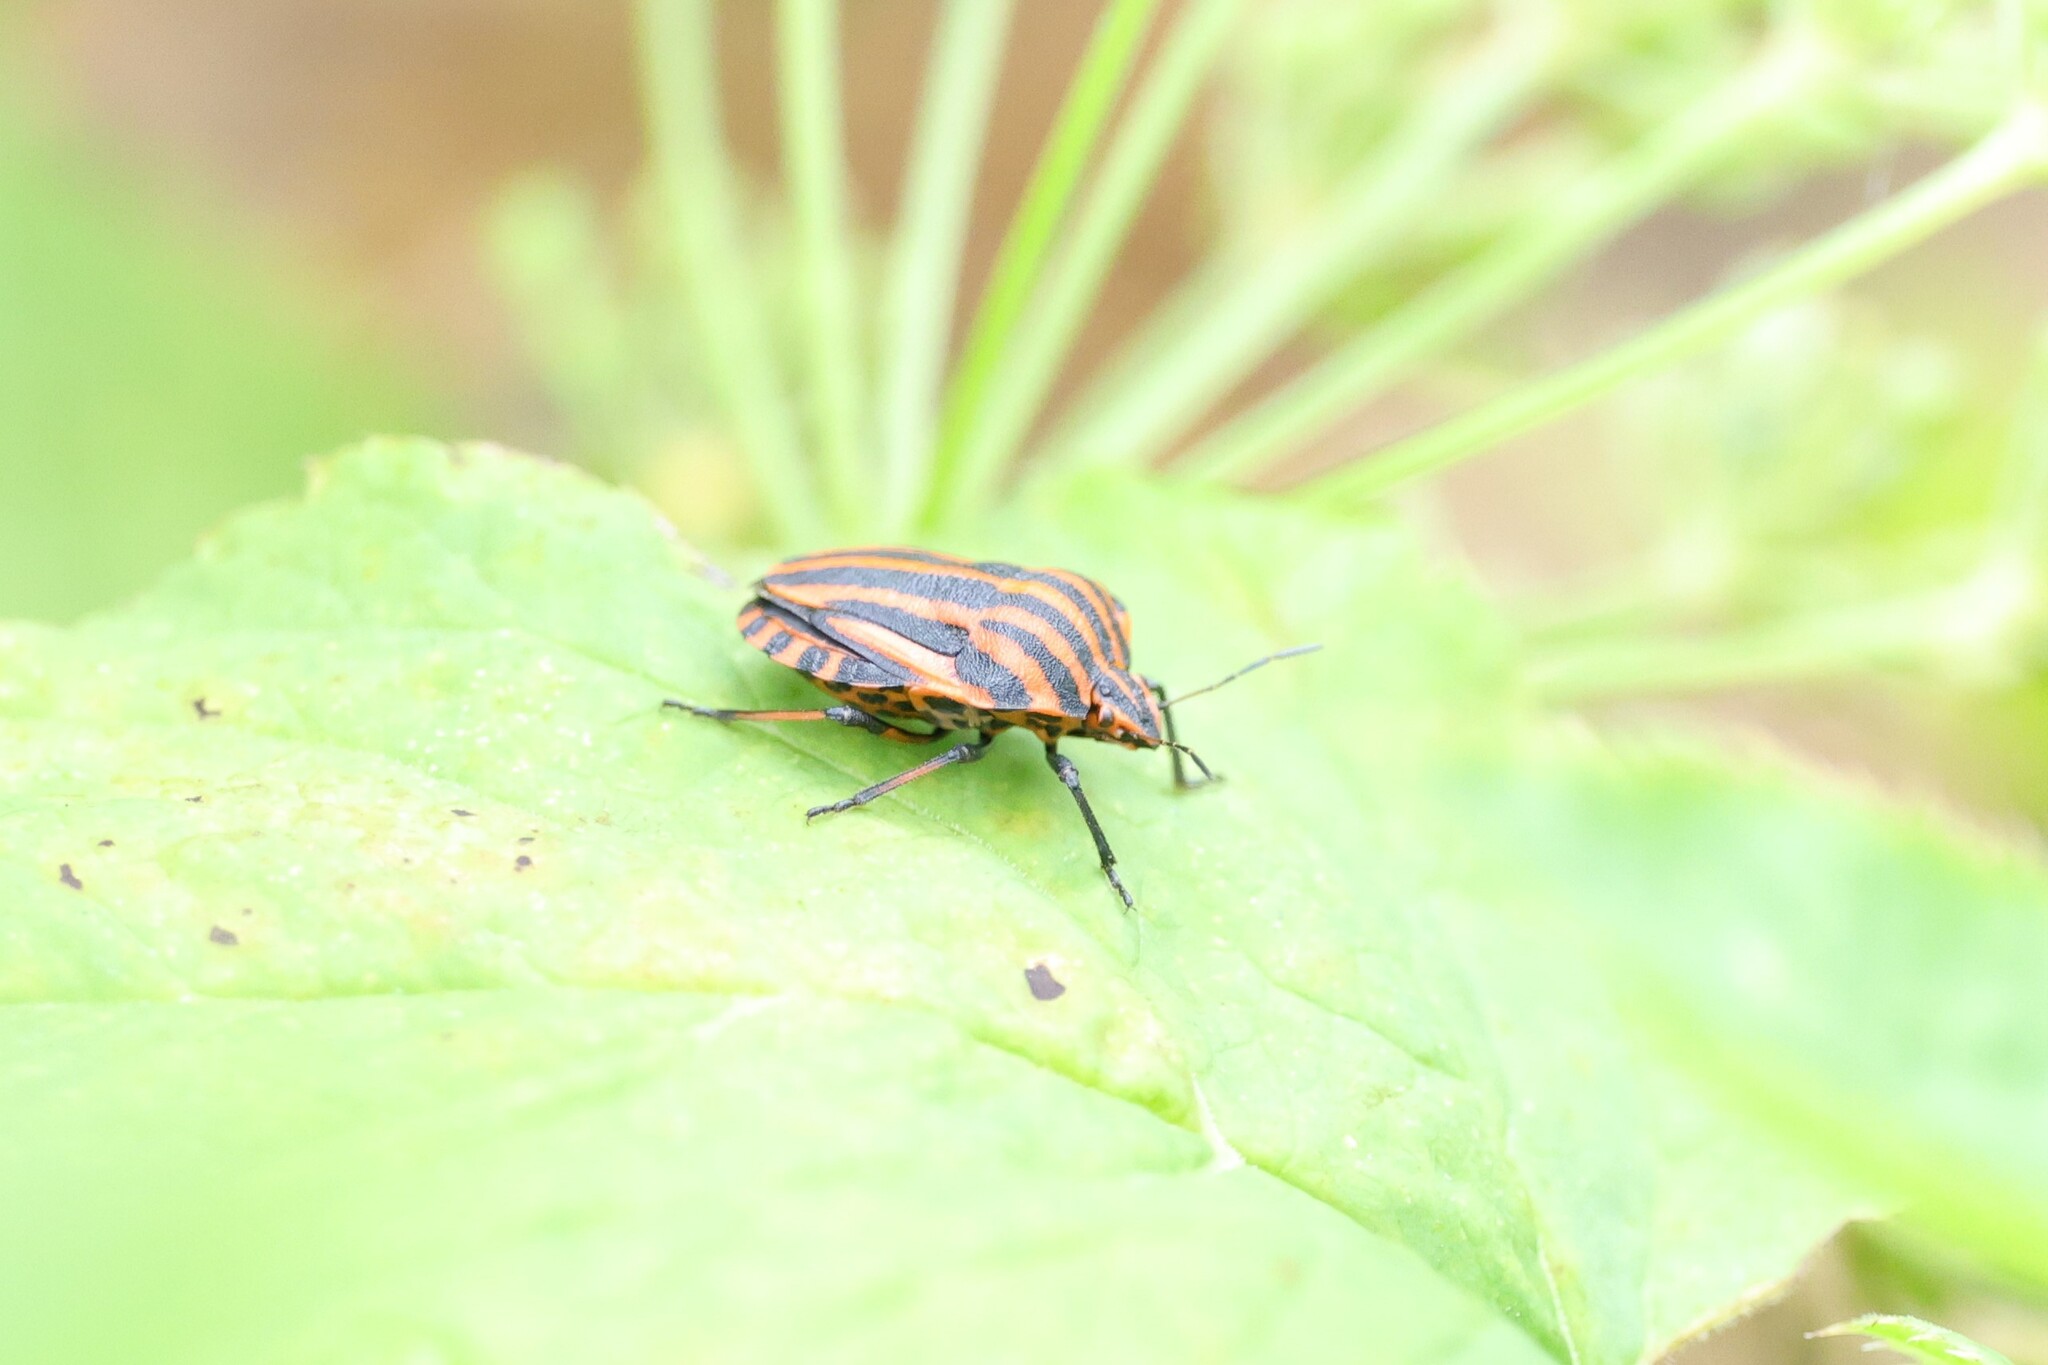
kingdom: Animalia
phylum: Arthropoda
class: Insecta
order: Hemiptera
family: Pentatomidae
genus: Graphosoma
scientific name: Graphosoma italicum
